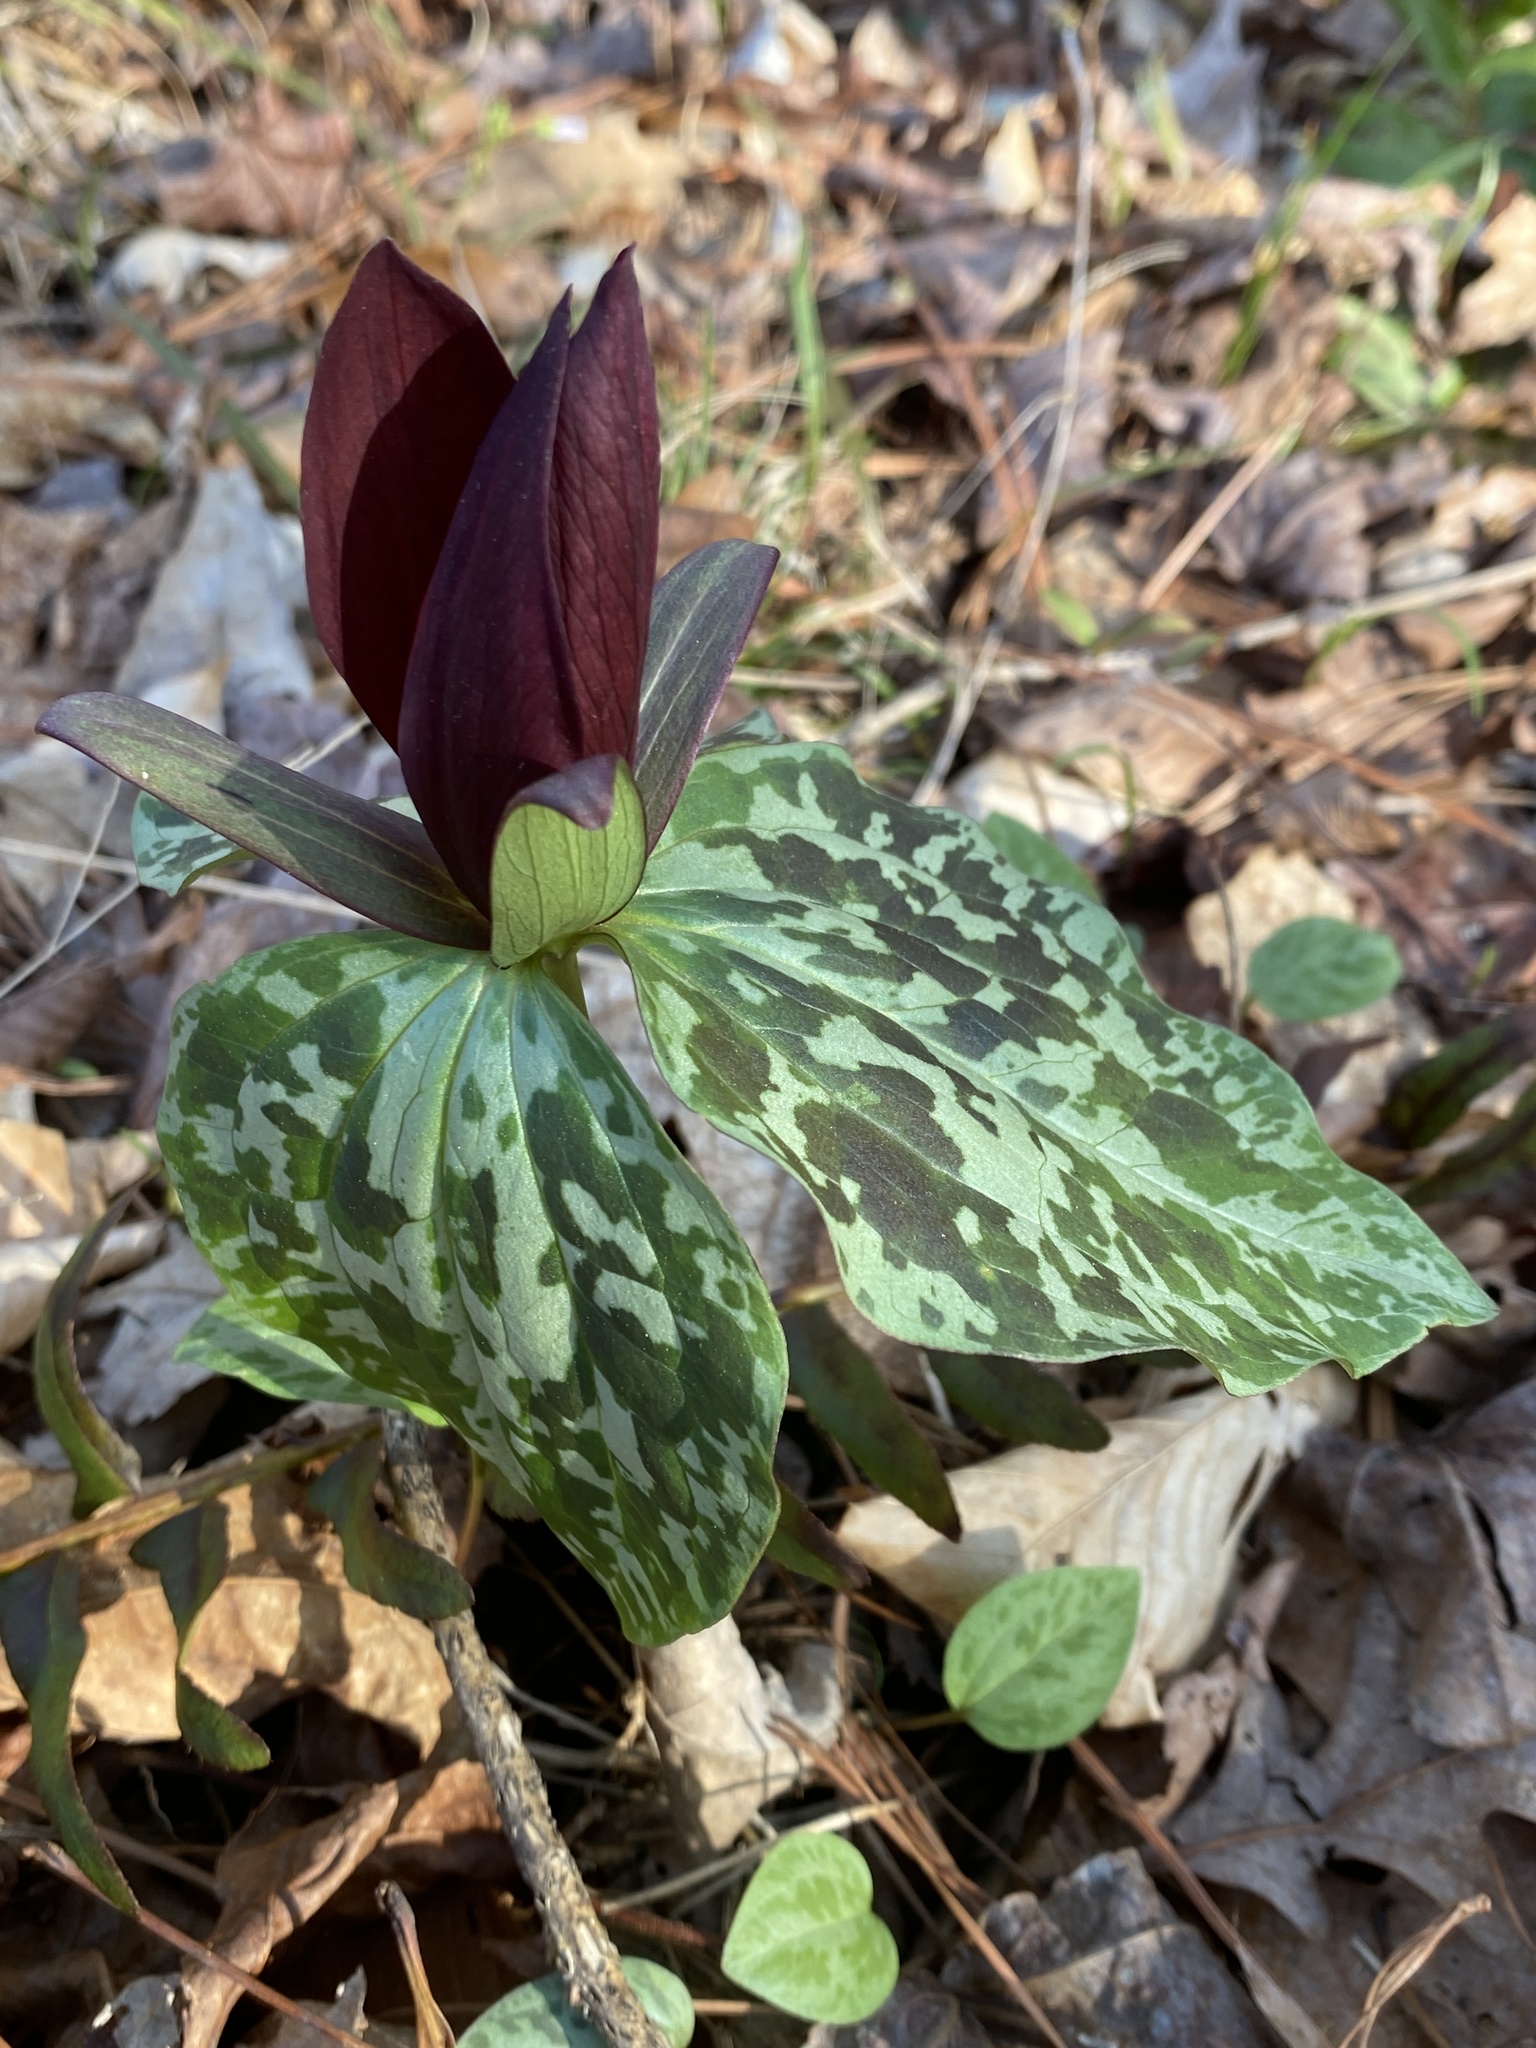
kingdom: Plantae
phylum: Tracheophyta
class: Liliopsida
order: Liliales
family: Melanthiaceae
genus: Trillium
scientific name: Trillium cuneatum
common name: Cuneate trillium
